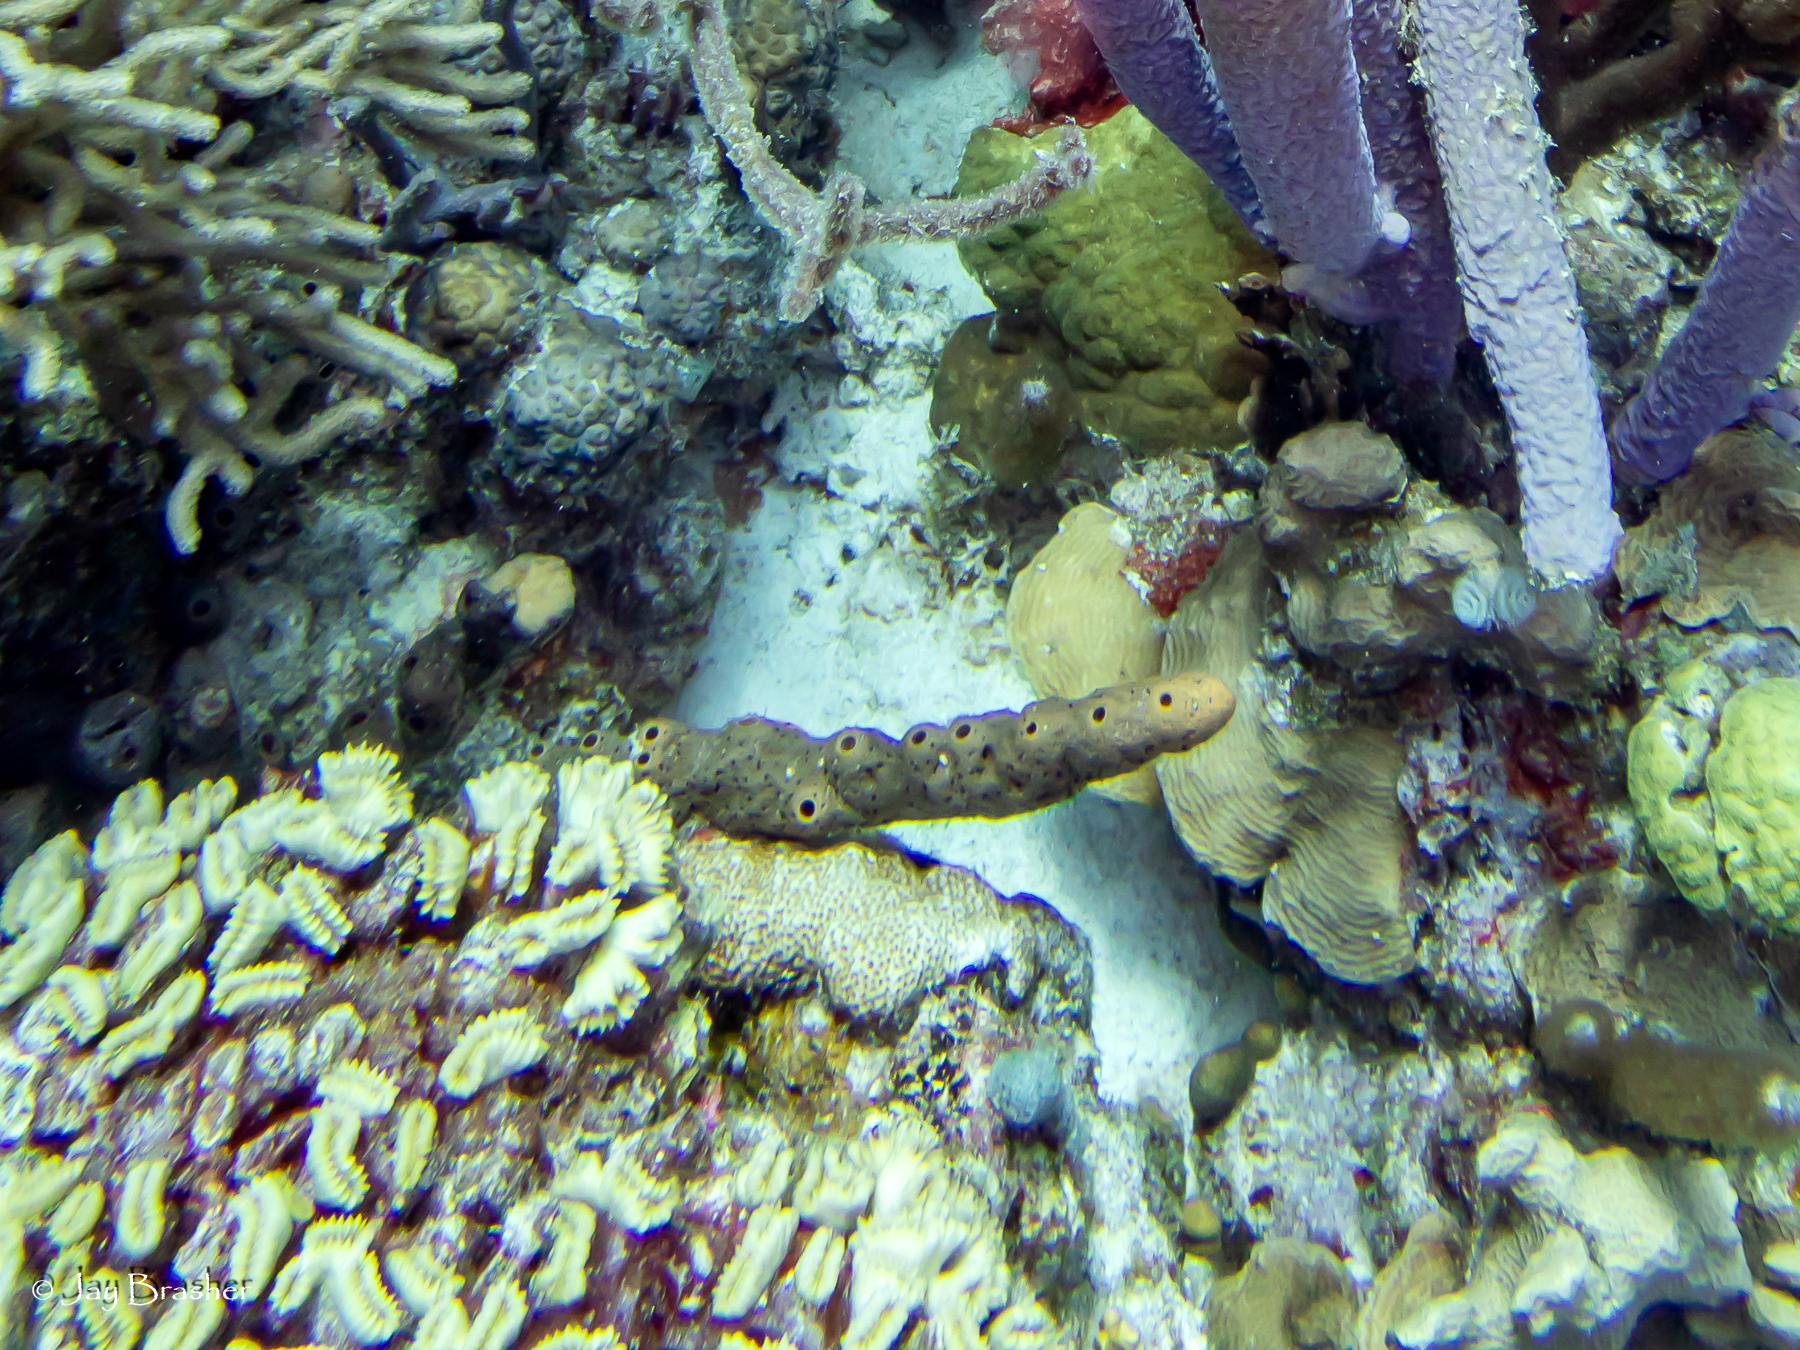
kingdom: Animalia
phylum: Cnidaria
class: Anthozoa
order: Scleractinia
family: Meandrinidae
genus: Eusmilia
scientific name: Eusmilia fastigiata
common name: Smooth flower coral
